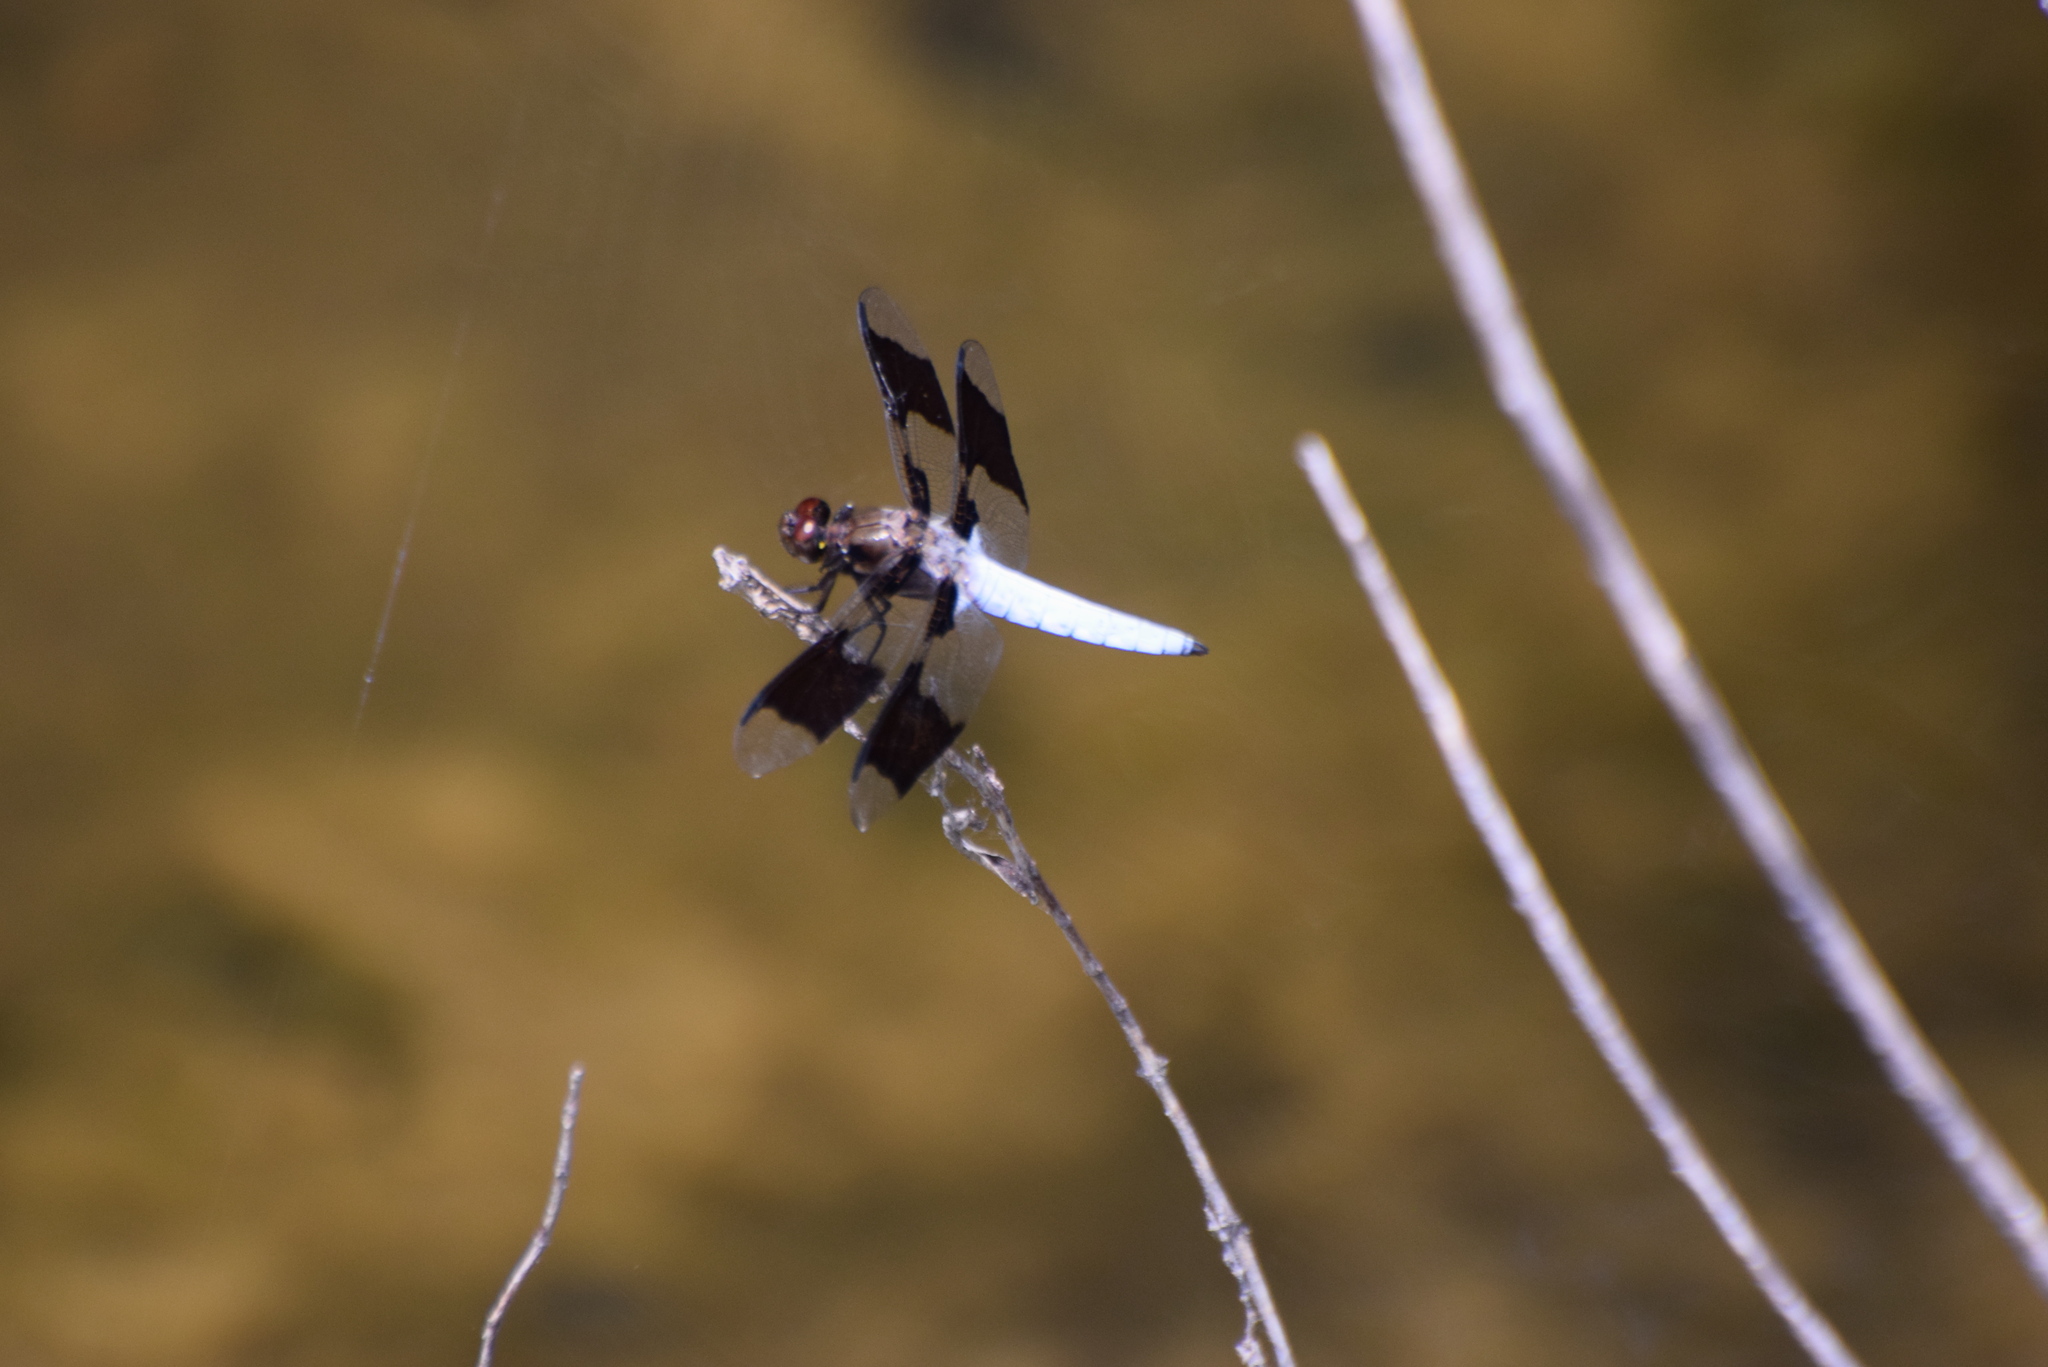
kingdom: Animalia
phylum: Arthropoda
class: Insecta
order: Odonata
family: Libellulidae
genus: Plathemis
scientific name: Plathemis lydia
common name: Common whitetail
